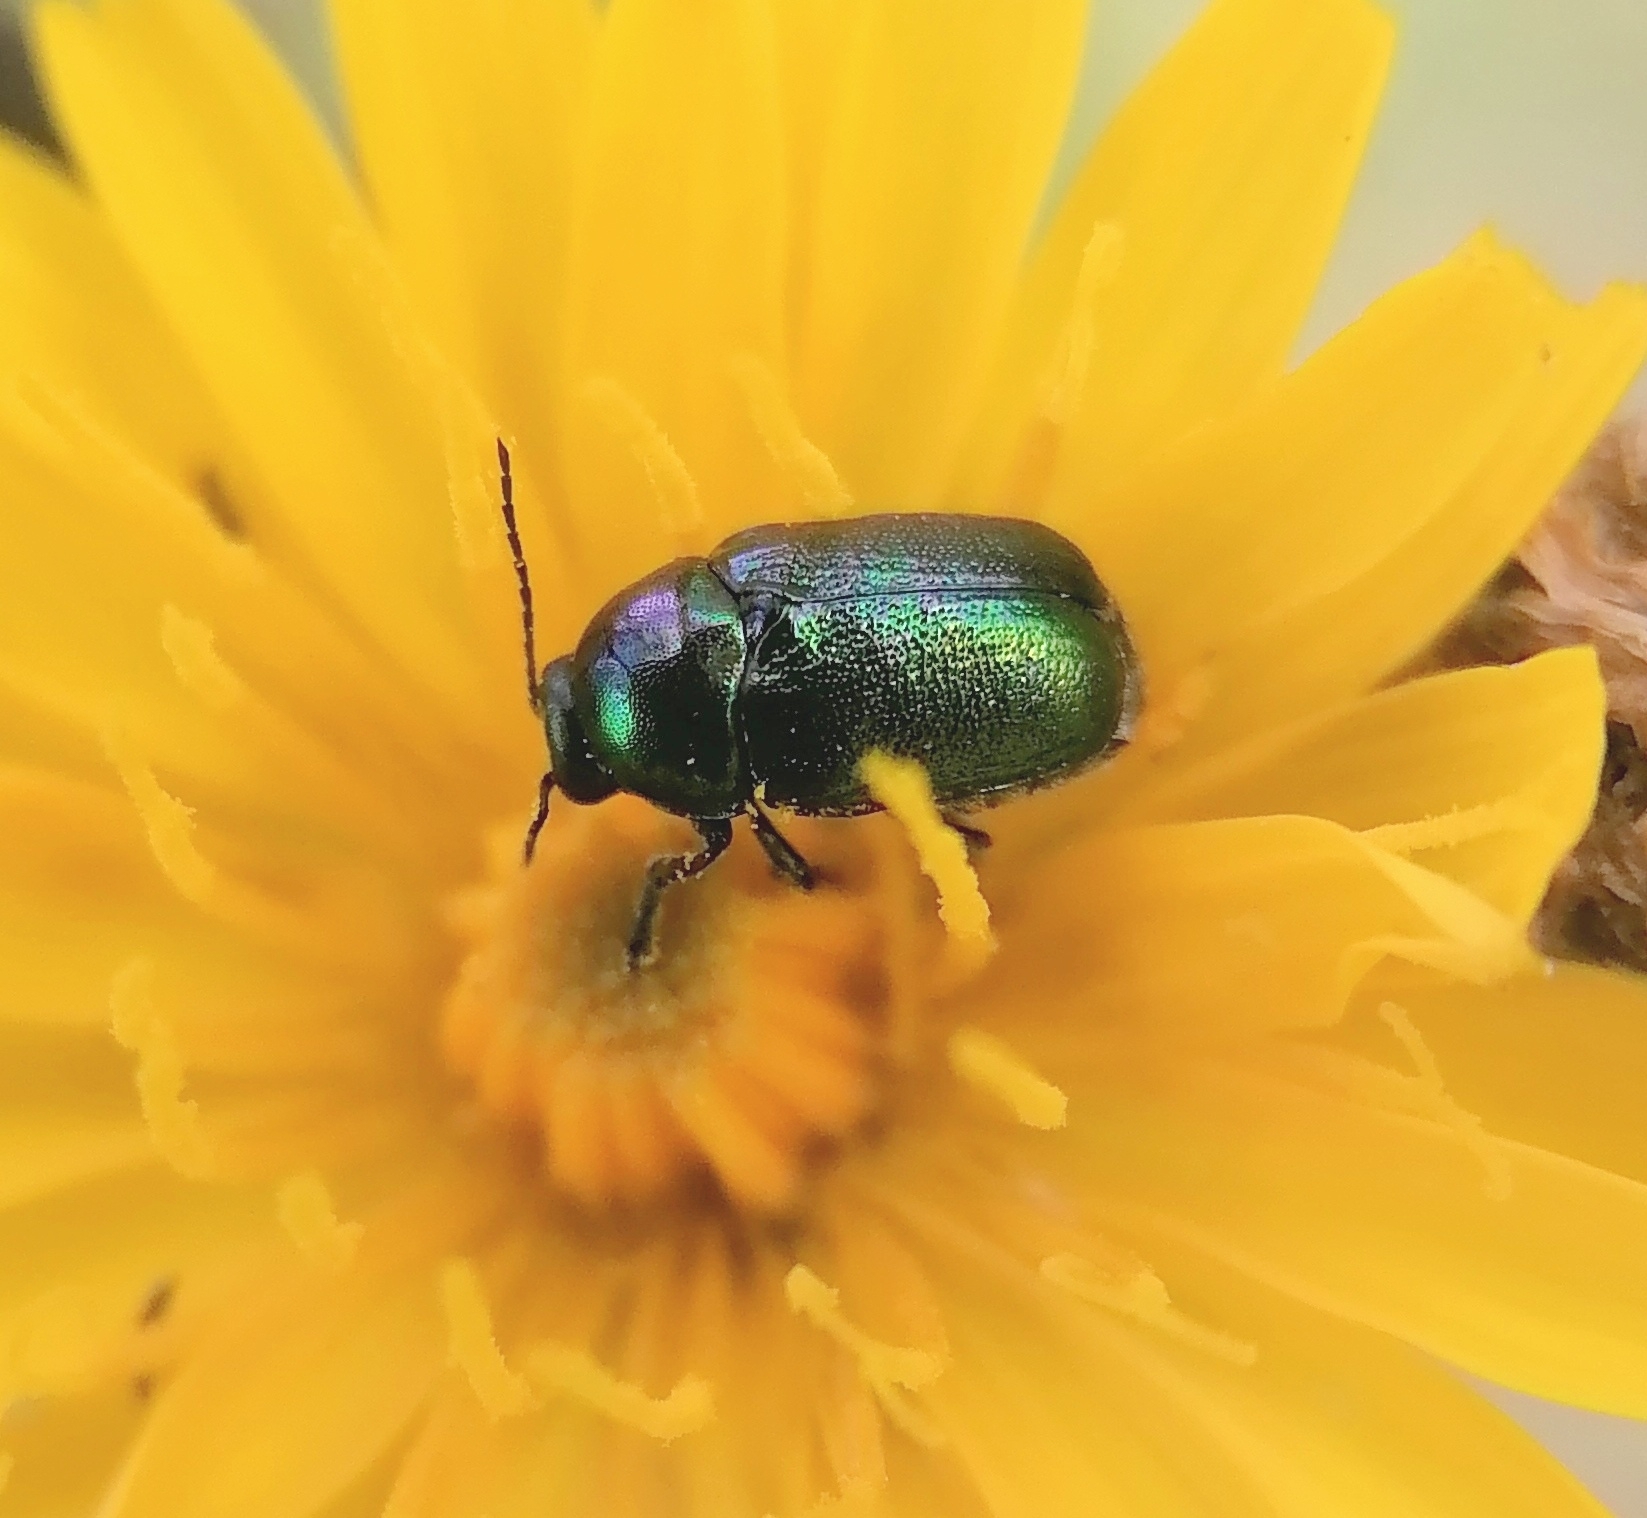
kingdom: Animalia
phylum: Arthropoda
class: Insecta
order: Coleoptera
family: Chrysomelidae
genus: Cryptocephalus
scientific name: Cryptocephalus sericeus
